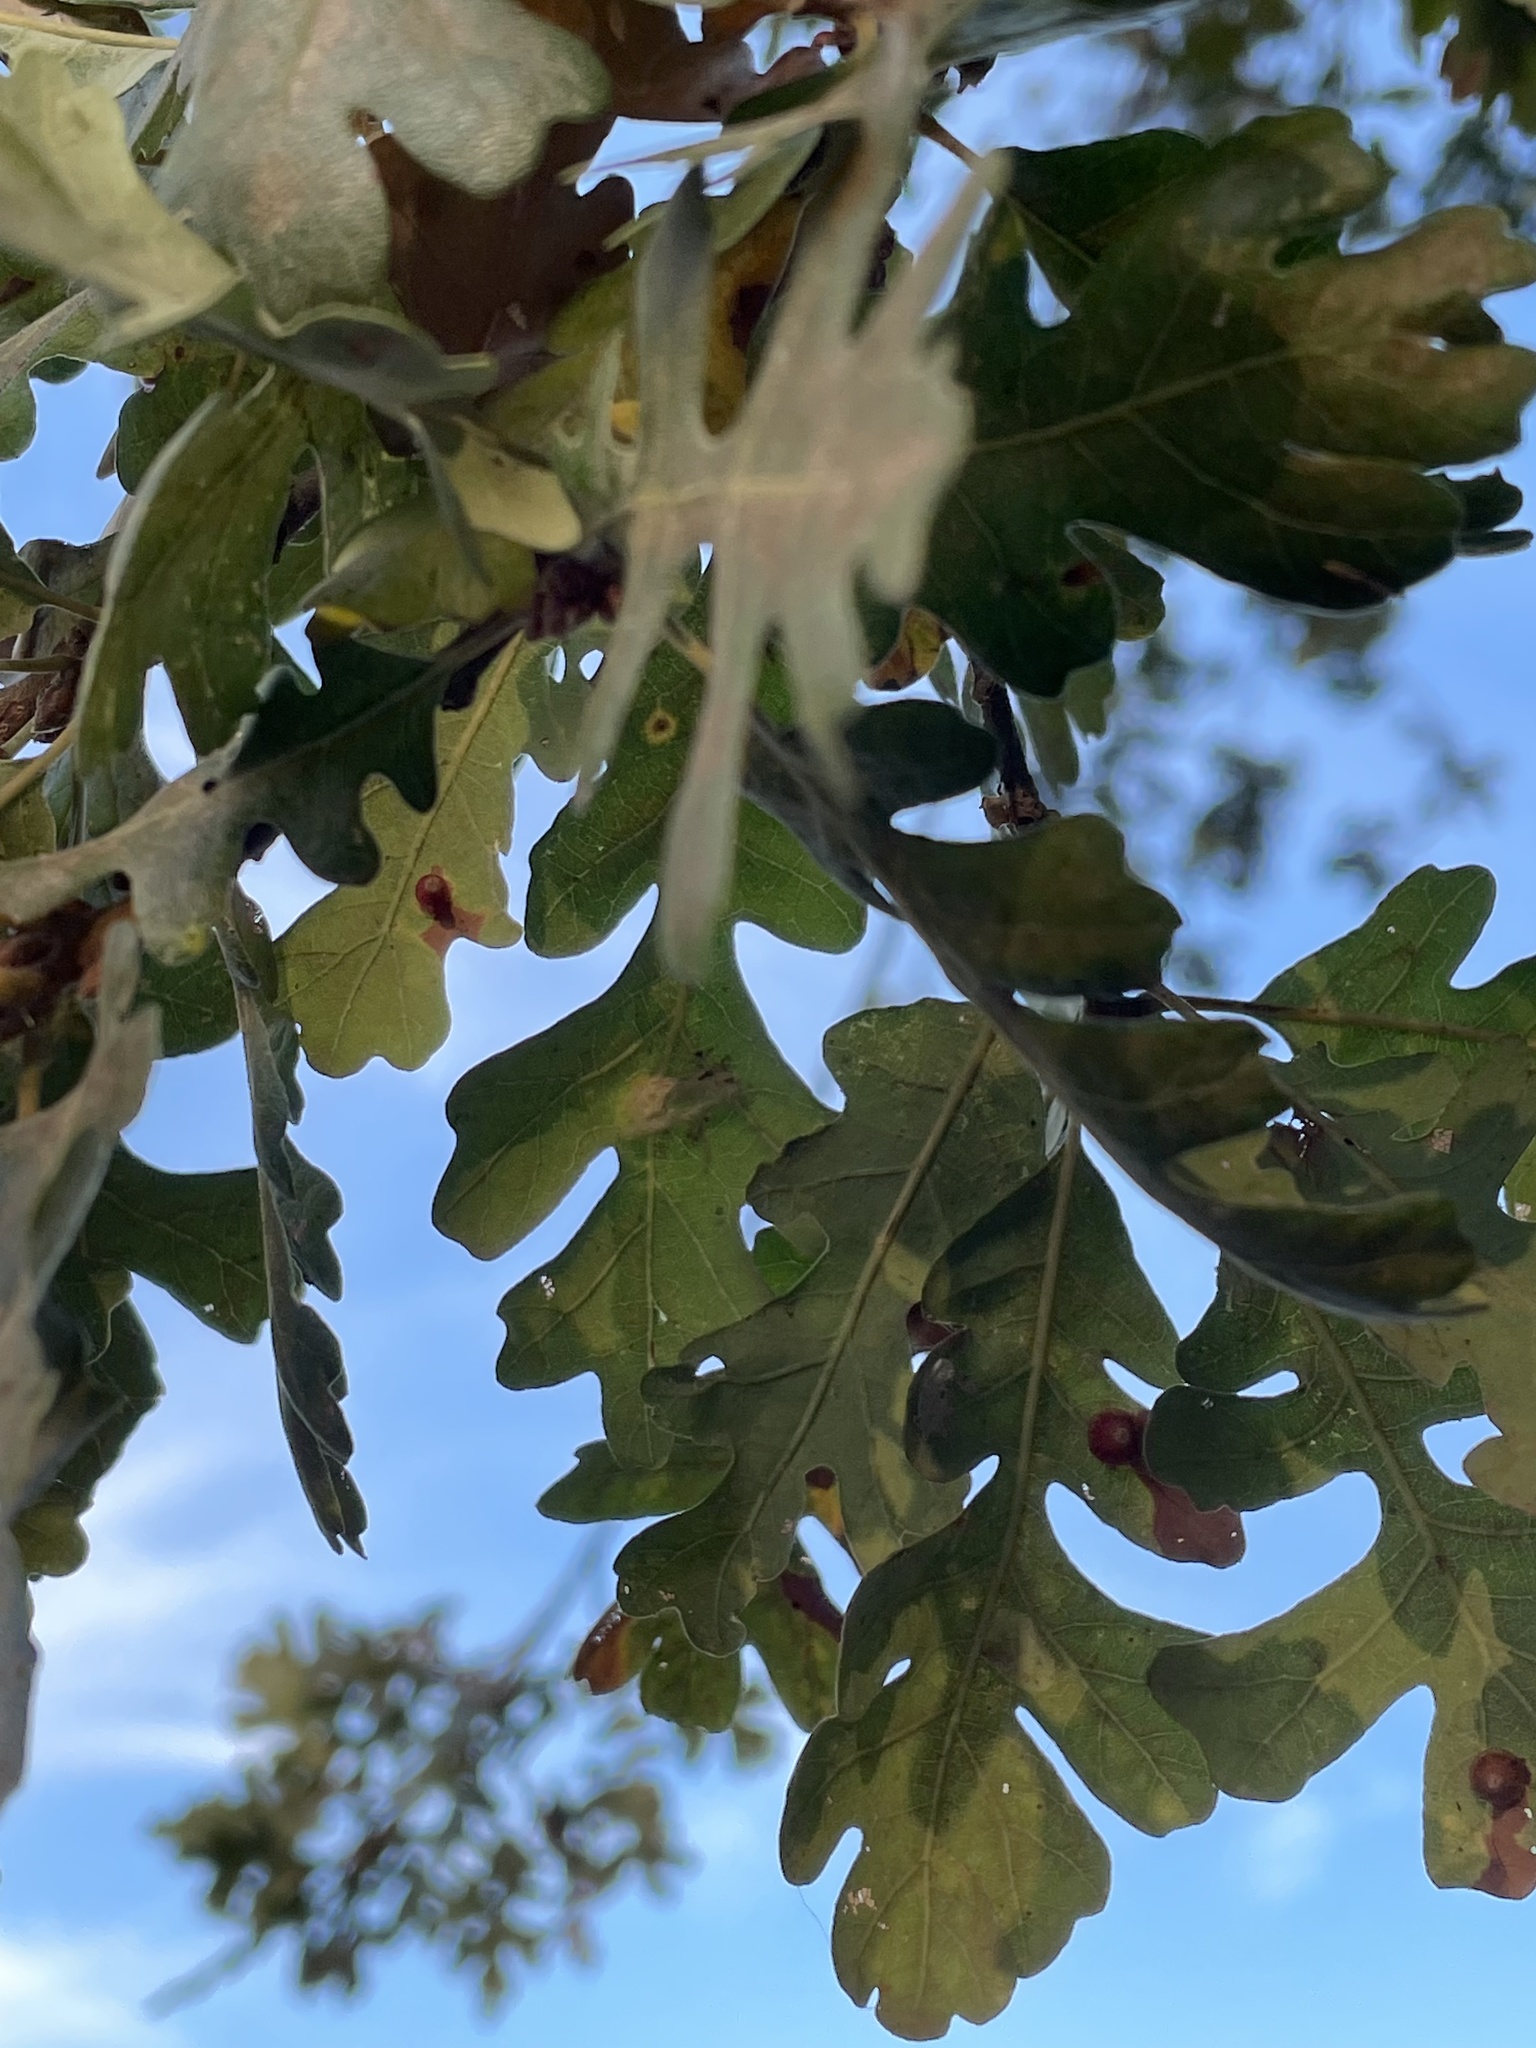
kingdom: Plantae
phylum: Tracheophyta
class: Magnoliopsida
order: Fagales
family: Fagaceae
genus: Quercus
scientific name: Quercus lobata
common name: Valley oak
